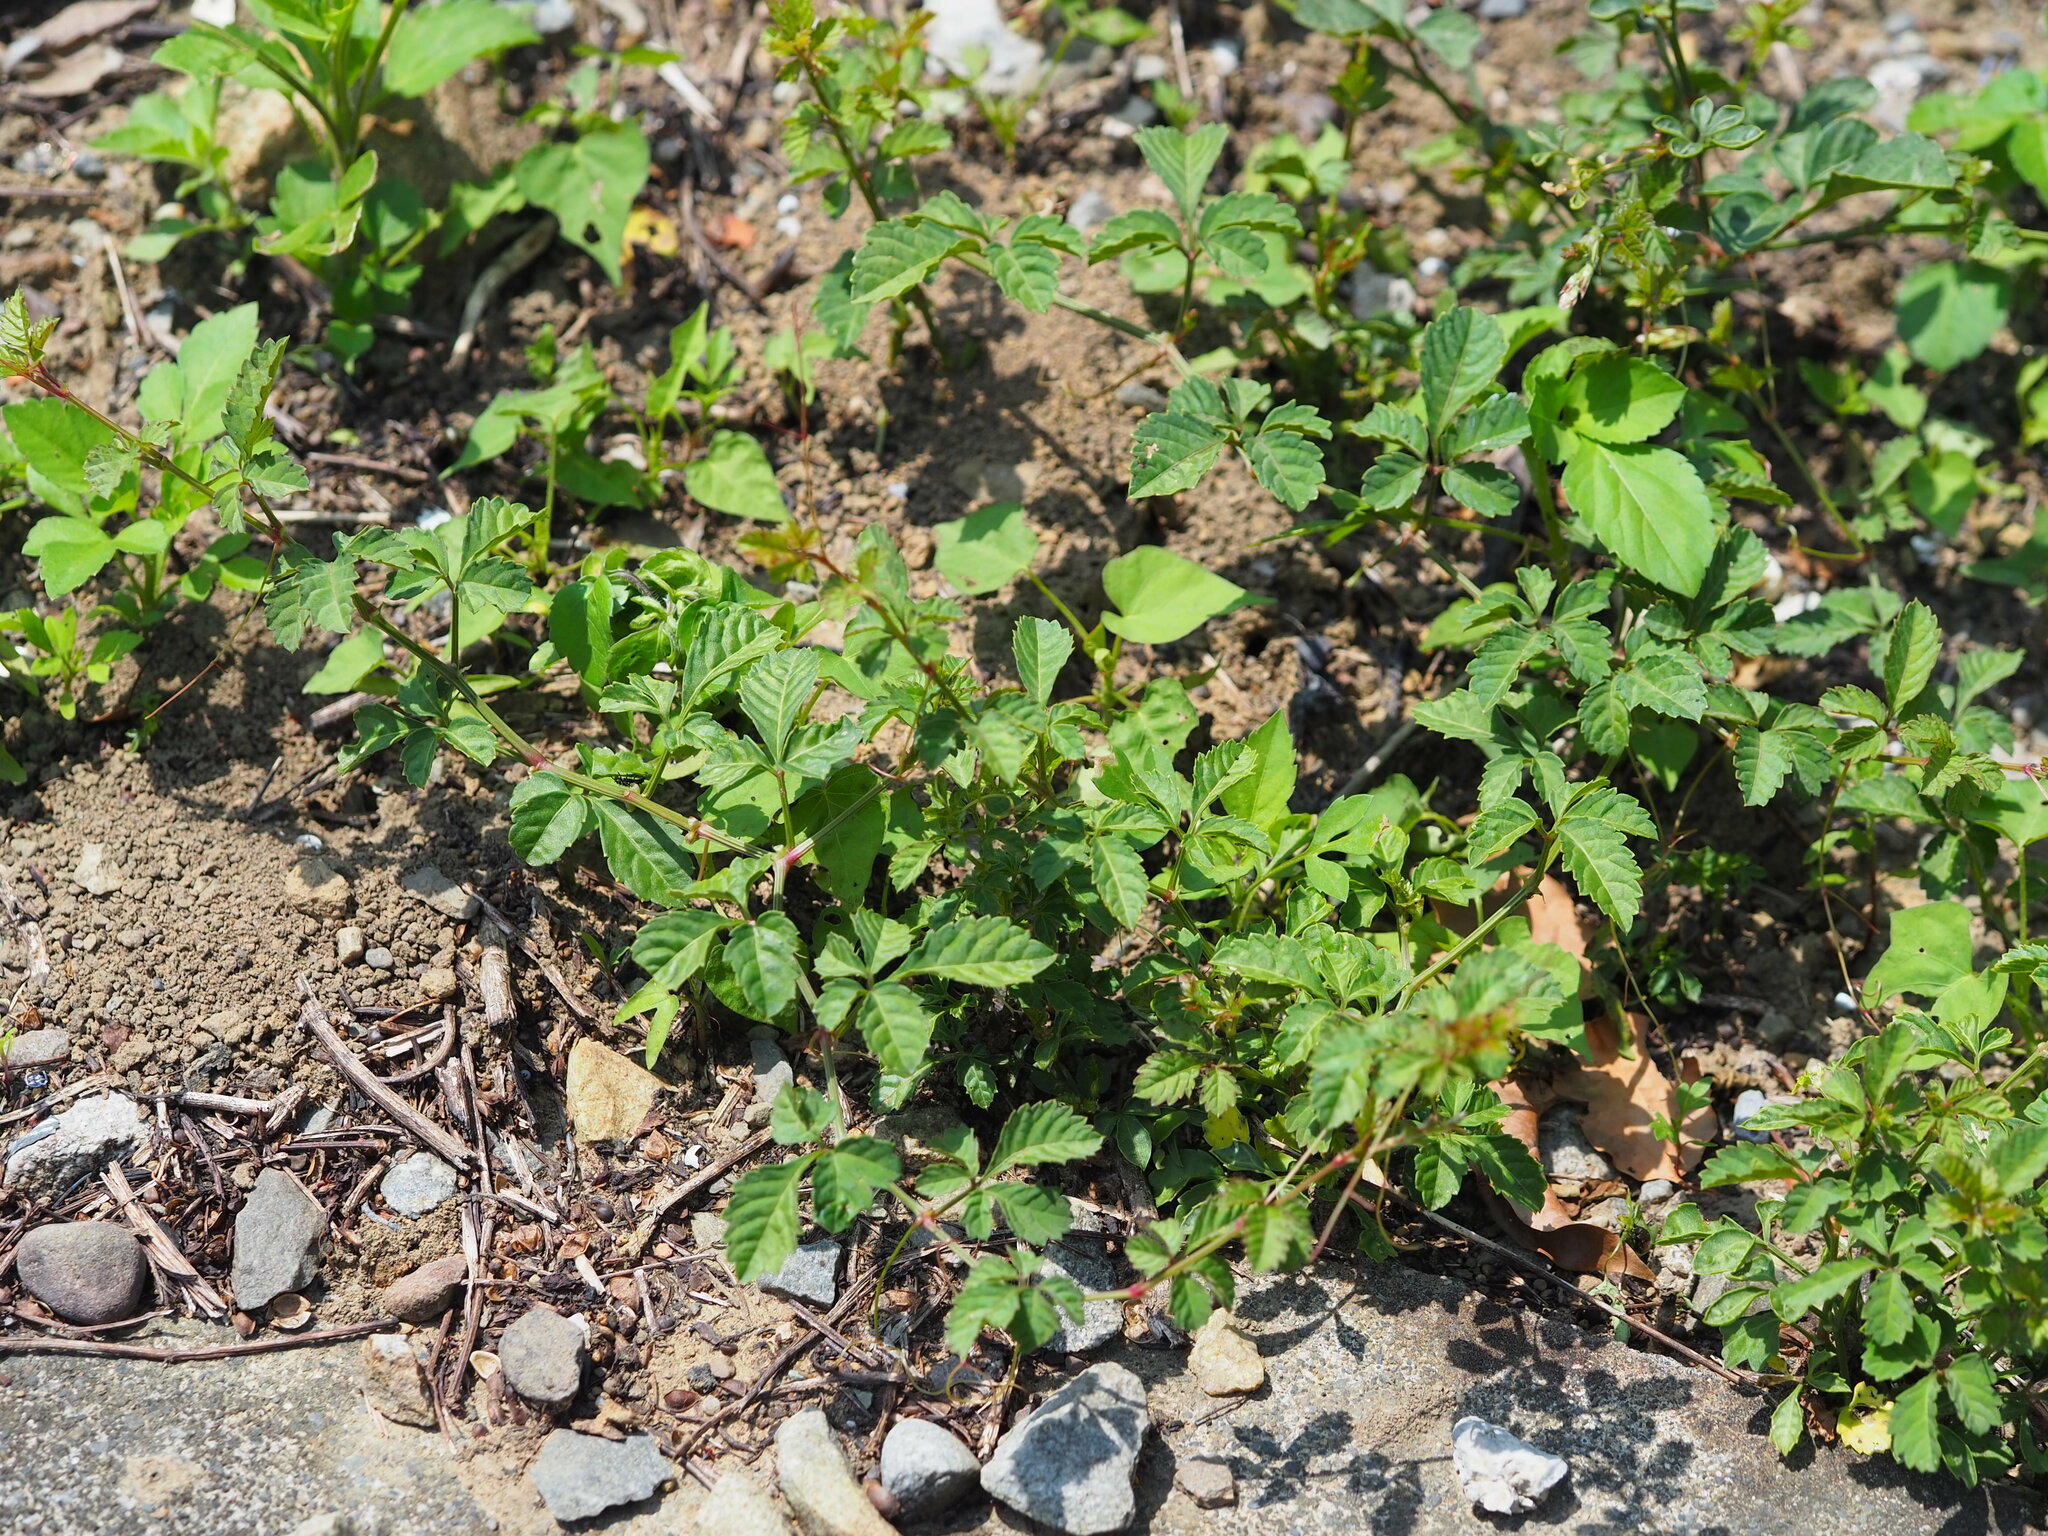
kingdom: Plantae
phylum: Tracheophyta
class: Magnoliopsida
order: Vitales
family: Vitaceae
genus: Causonis
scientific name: Causonis japonica
